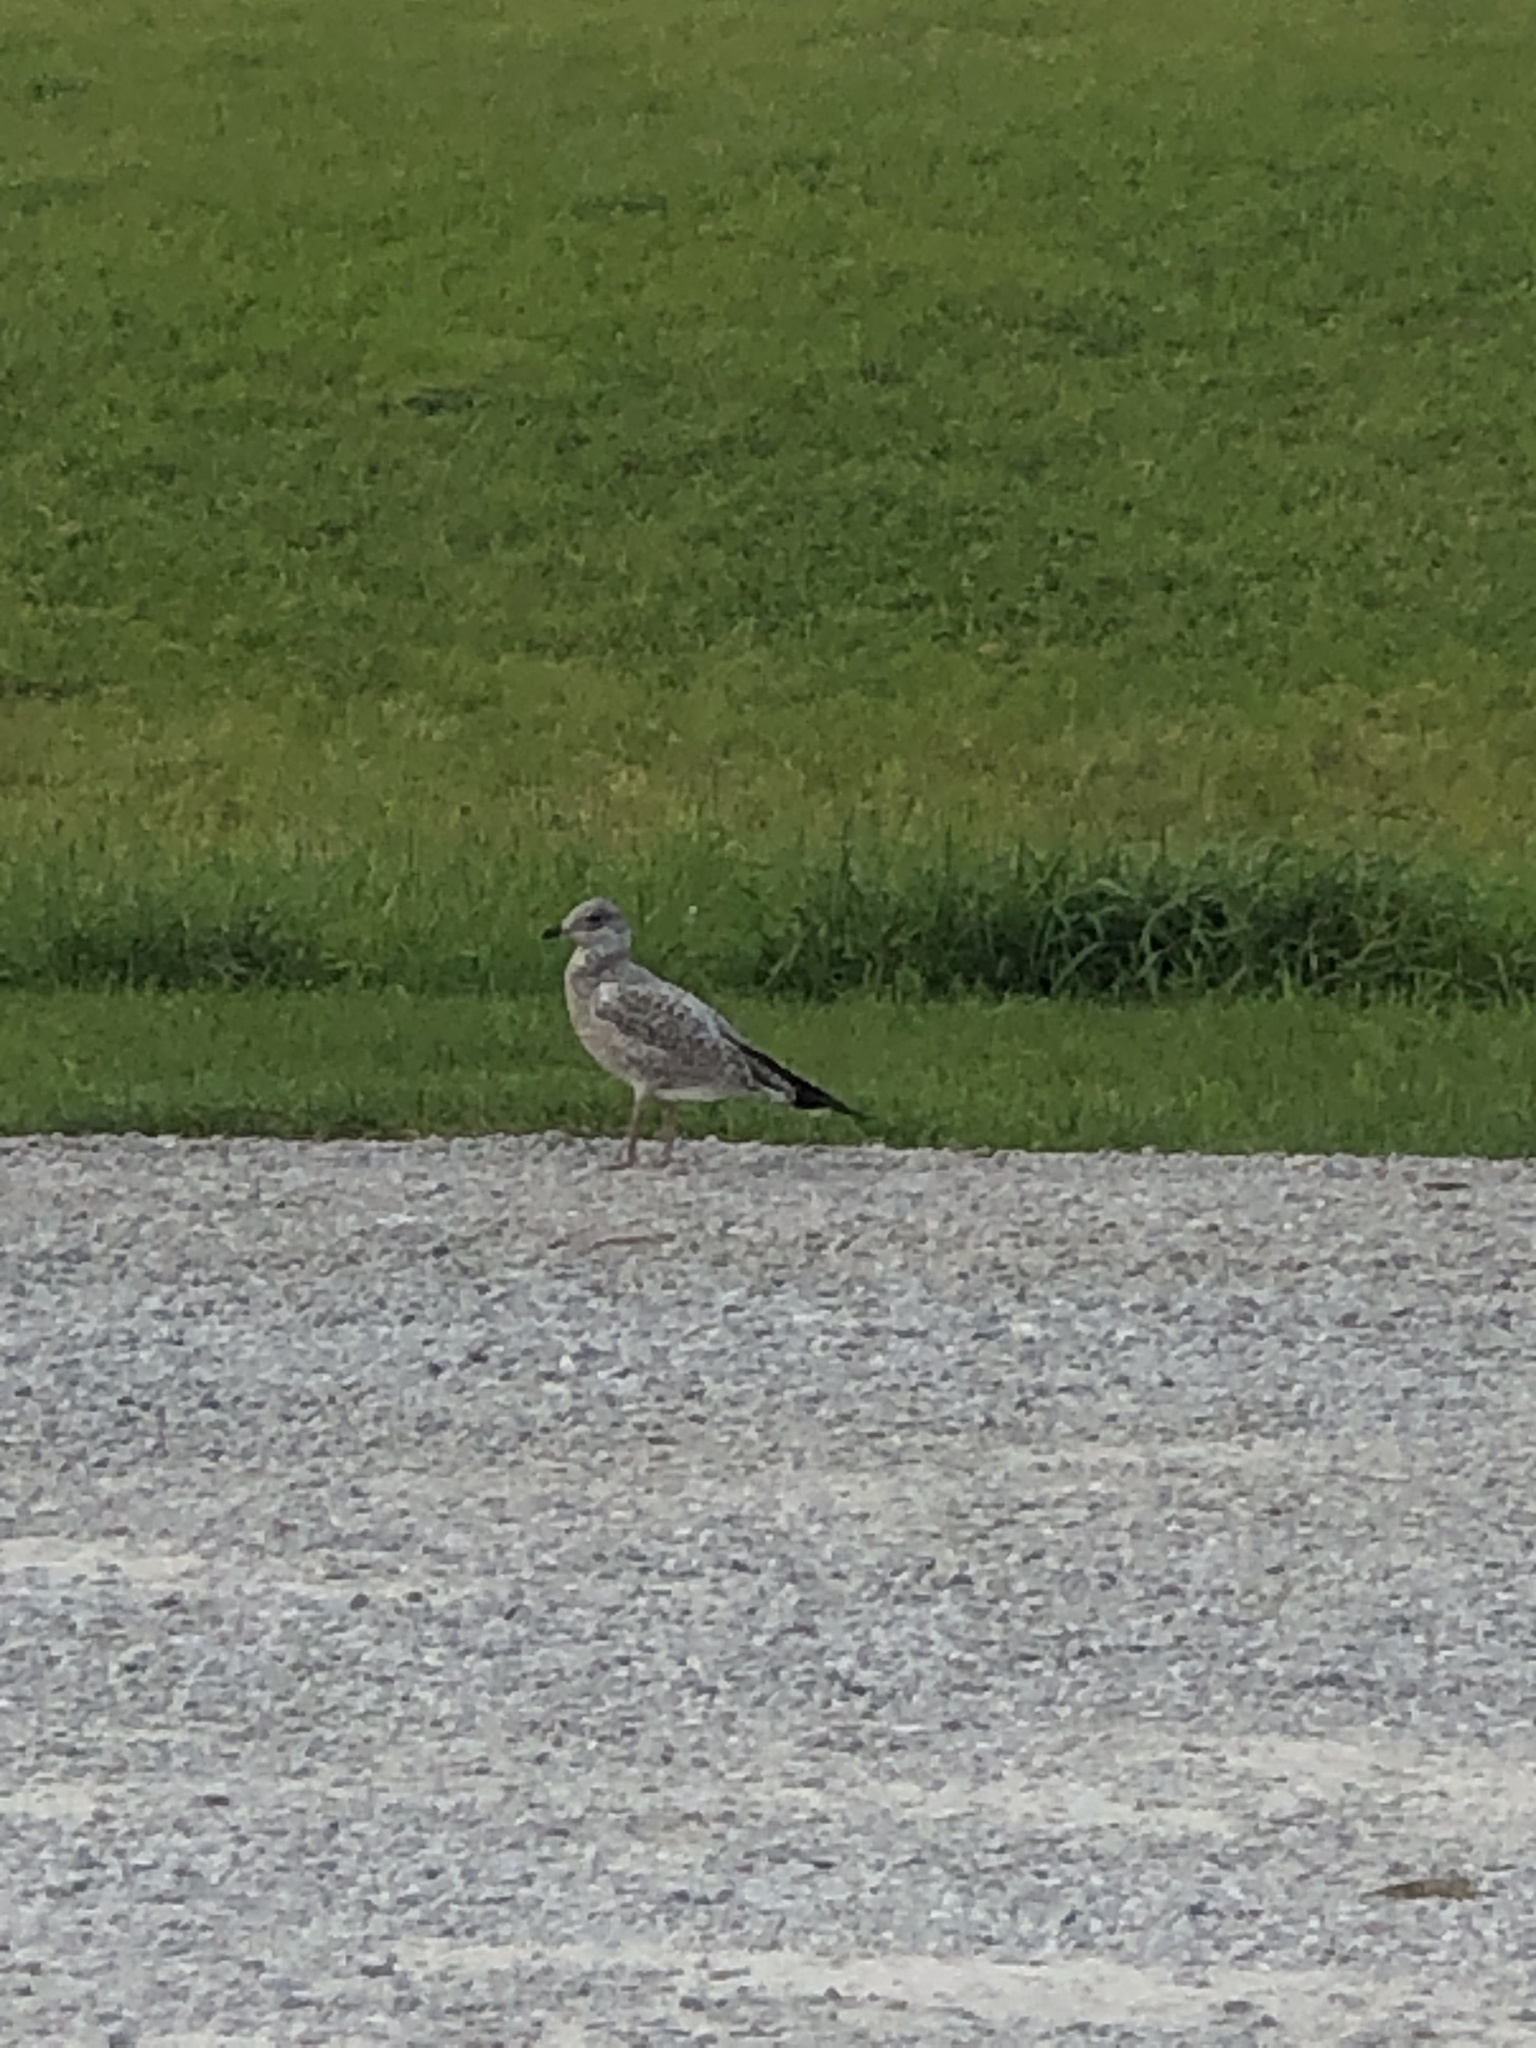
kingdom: Animalia
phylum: Chordata
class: Aves
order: Charadriiformes
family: Laridae
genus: Larus
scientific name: Larus delawarensis
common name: Ring-billed gull
